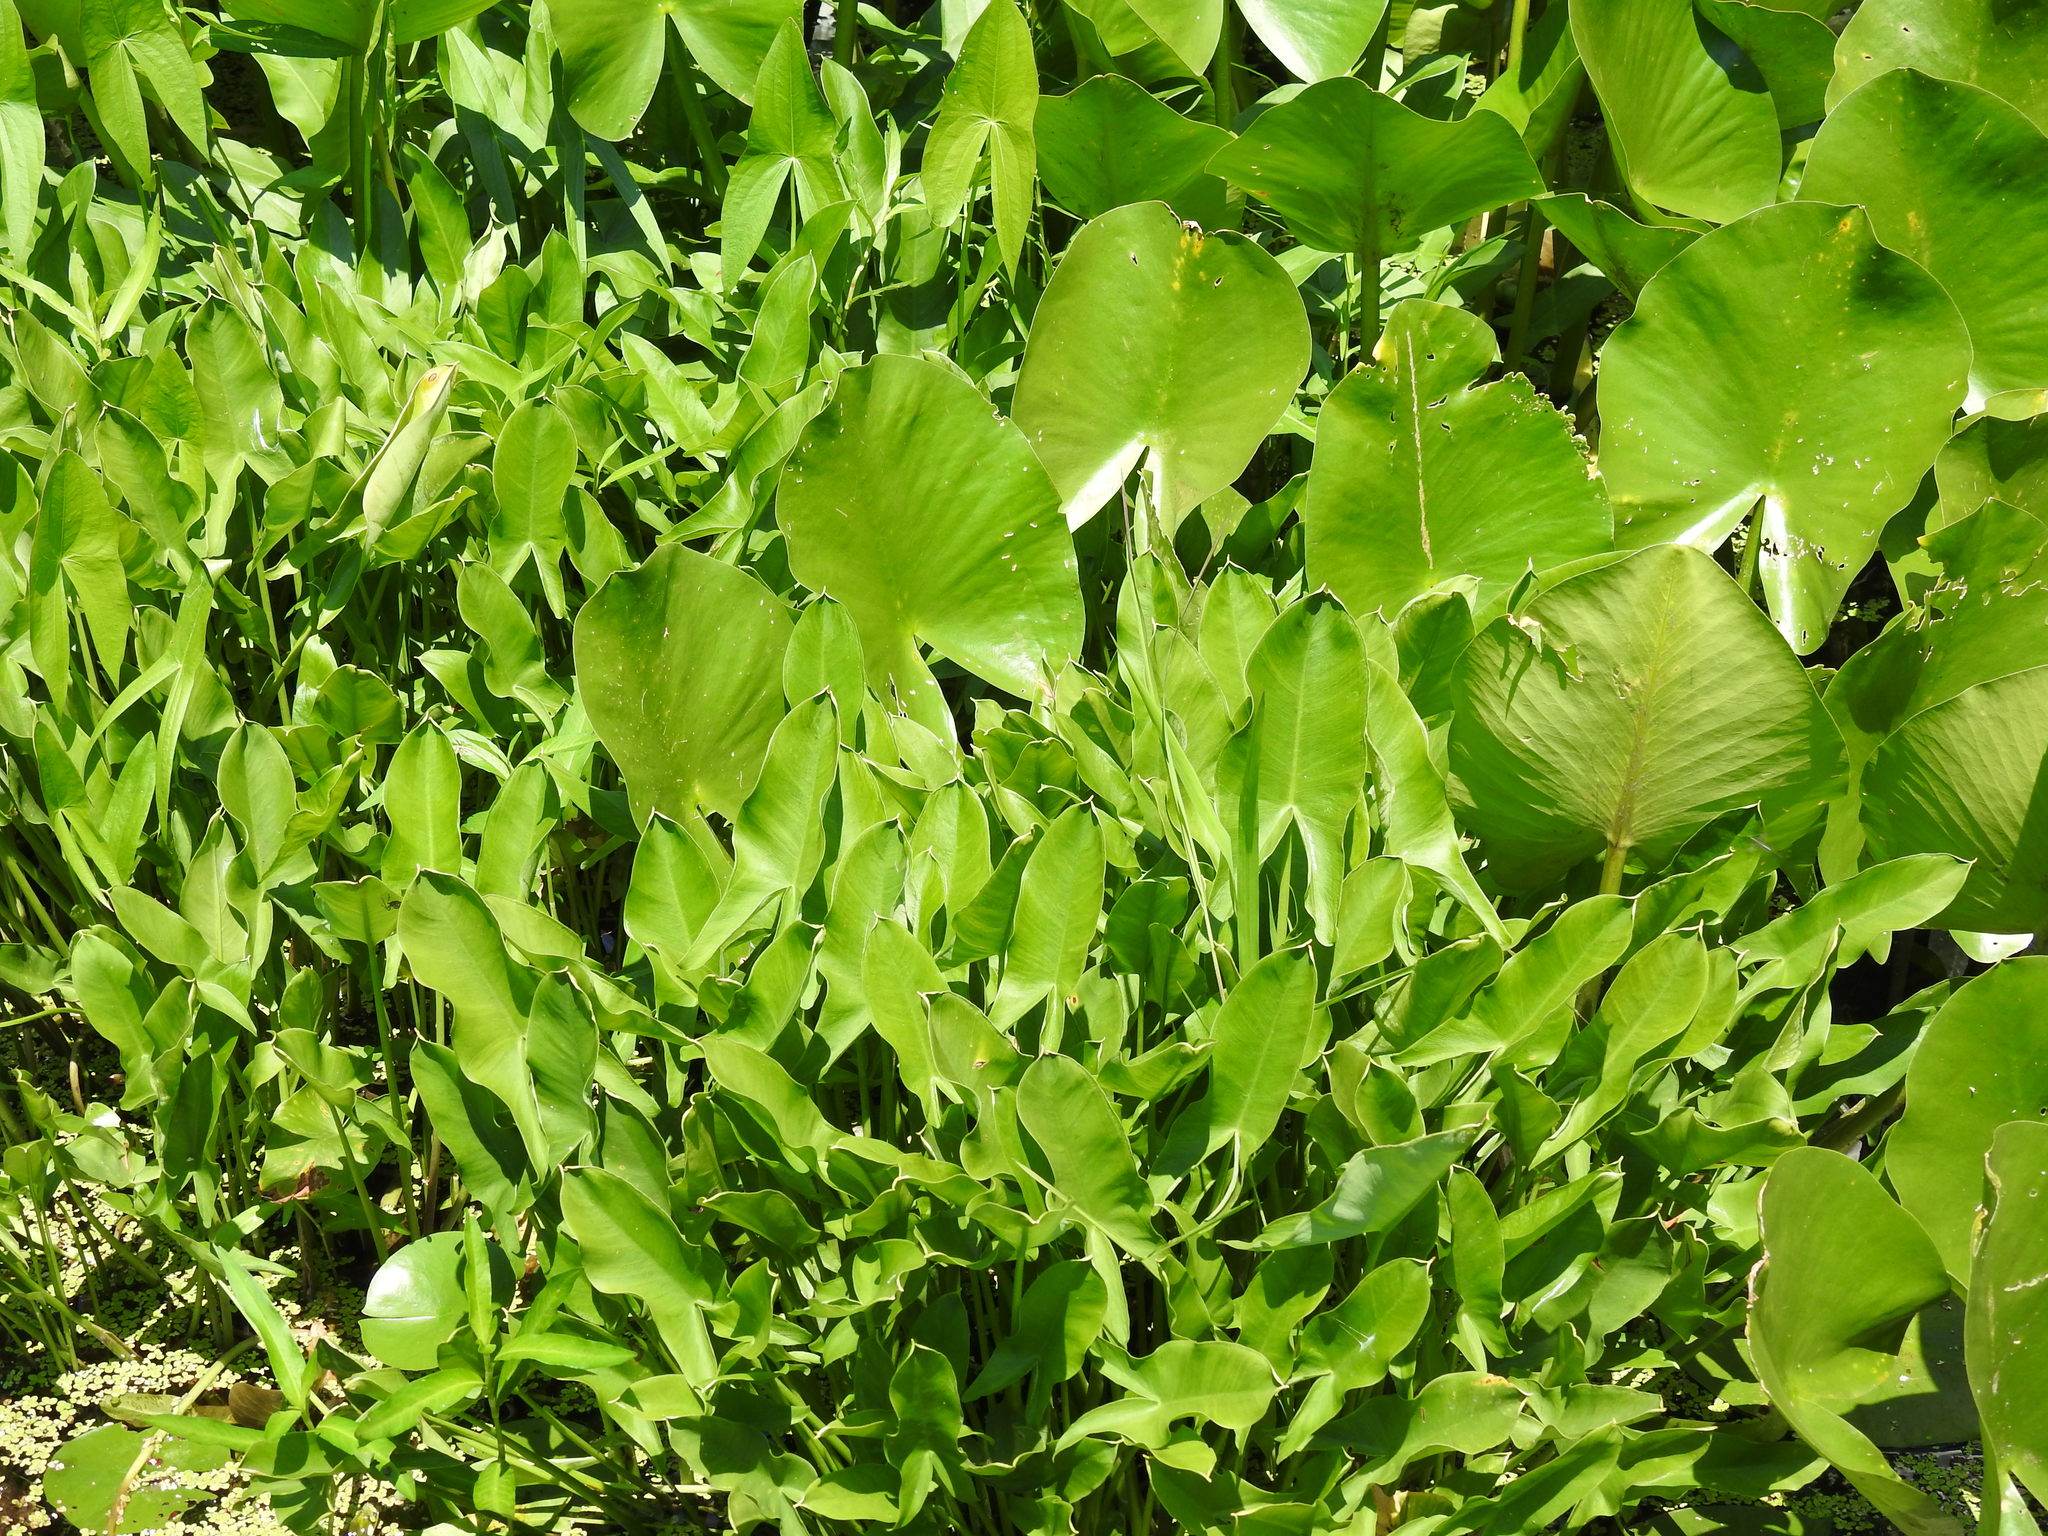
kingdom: Plantae
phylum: Tracheophyta
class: Liliopsida
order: Alismatales
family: Araceae
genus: Peltandra
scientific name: Peltandra virginica
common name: Arrow arum
